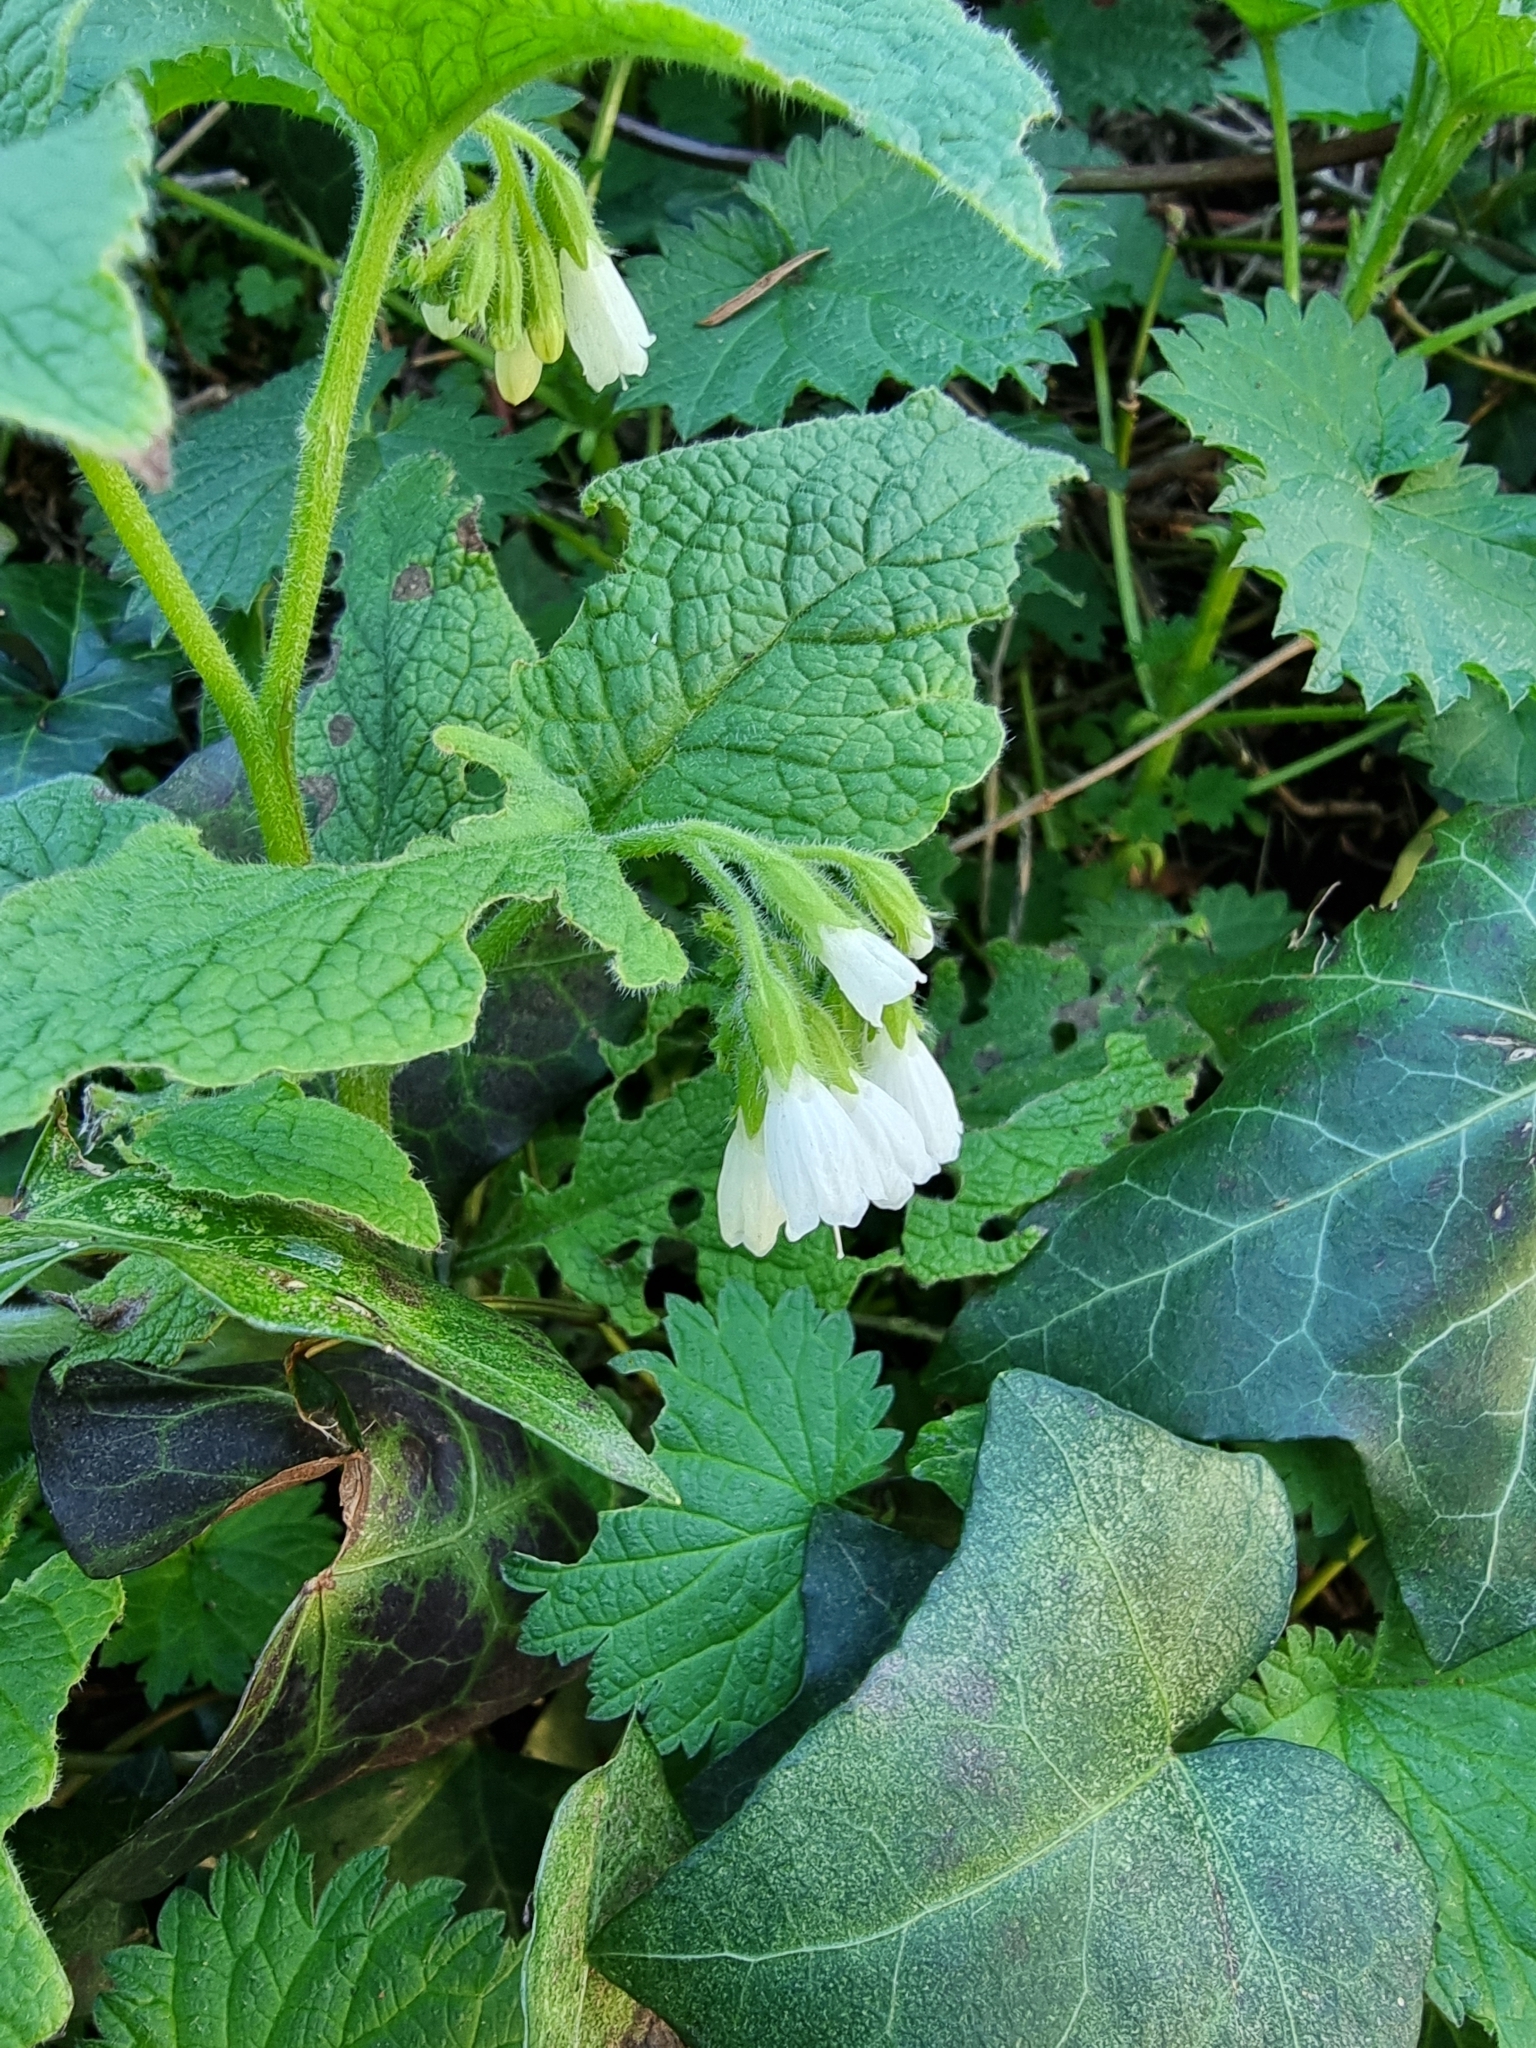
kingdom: Plantae
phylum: Tracheophyta
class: Magnoliopsida
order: Boraginales
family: Boraginaceae
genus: Symphytum
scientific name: Symphytum orientale
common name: White comfrey
